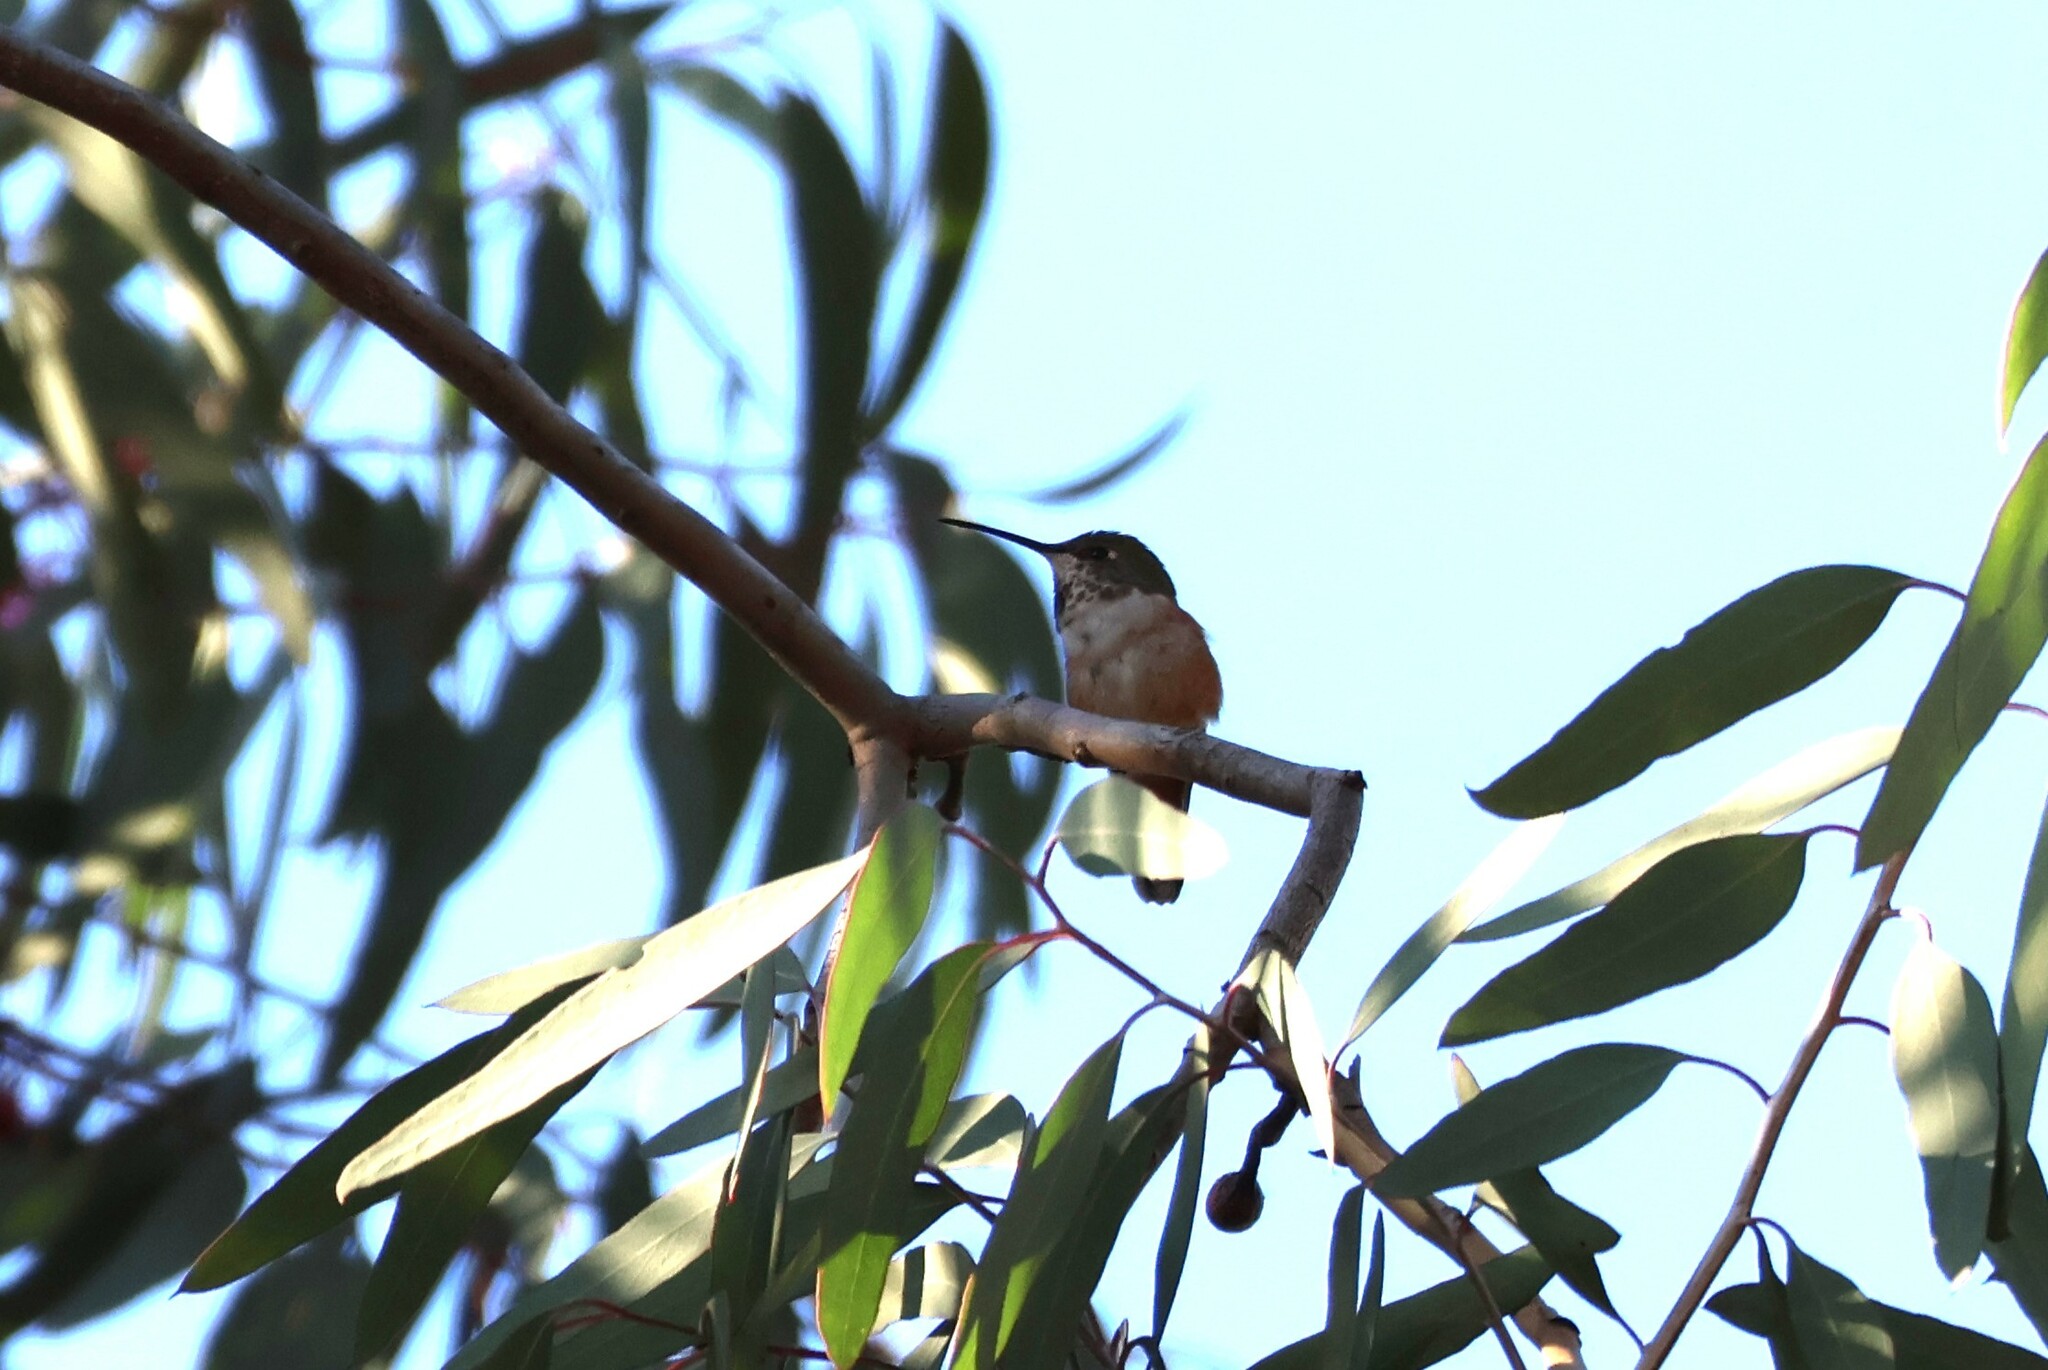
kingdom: Animalia
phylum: Chordata
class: Aves
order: Apodiformes
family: Trochilidae
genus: Selasphorus
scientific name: Selasphorus sasin
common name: Allen's hummingbird
